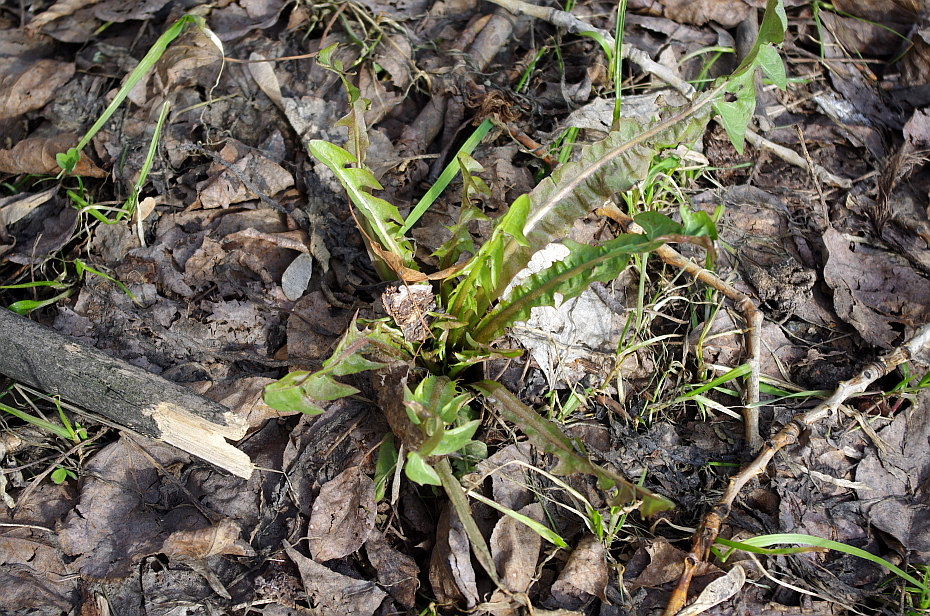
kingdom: Plantae
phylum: Tracheophyta
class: Magnoliopsida
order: Asterales
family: Asteraceae
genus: Taraxacum
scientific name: Taraxacum officinale
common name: Common dandelion
